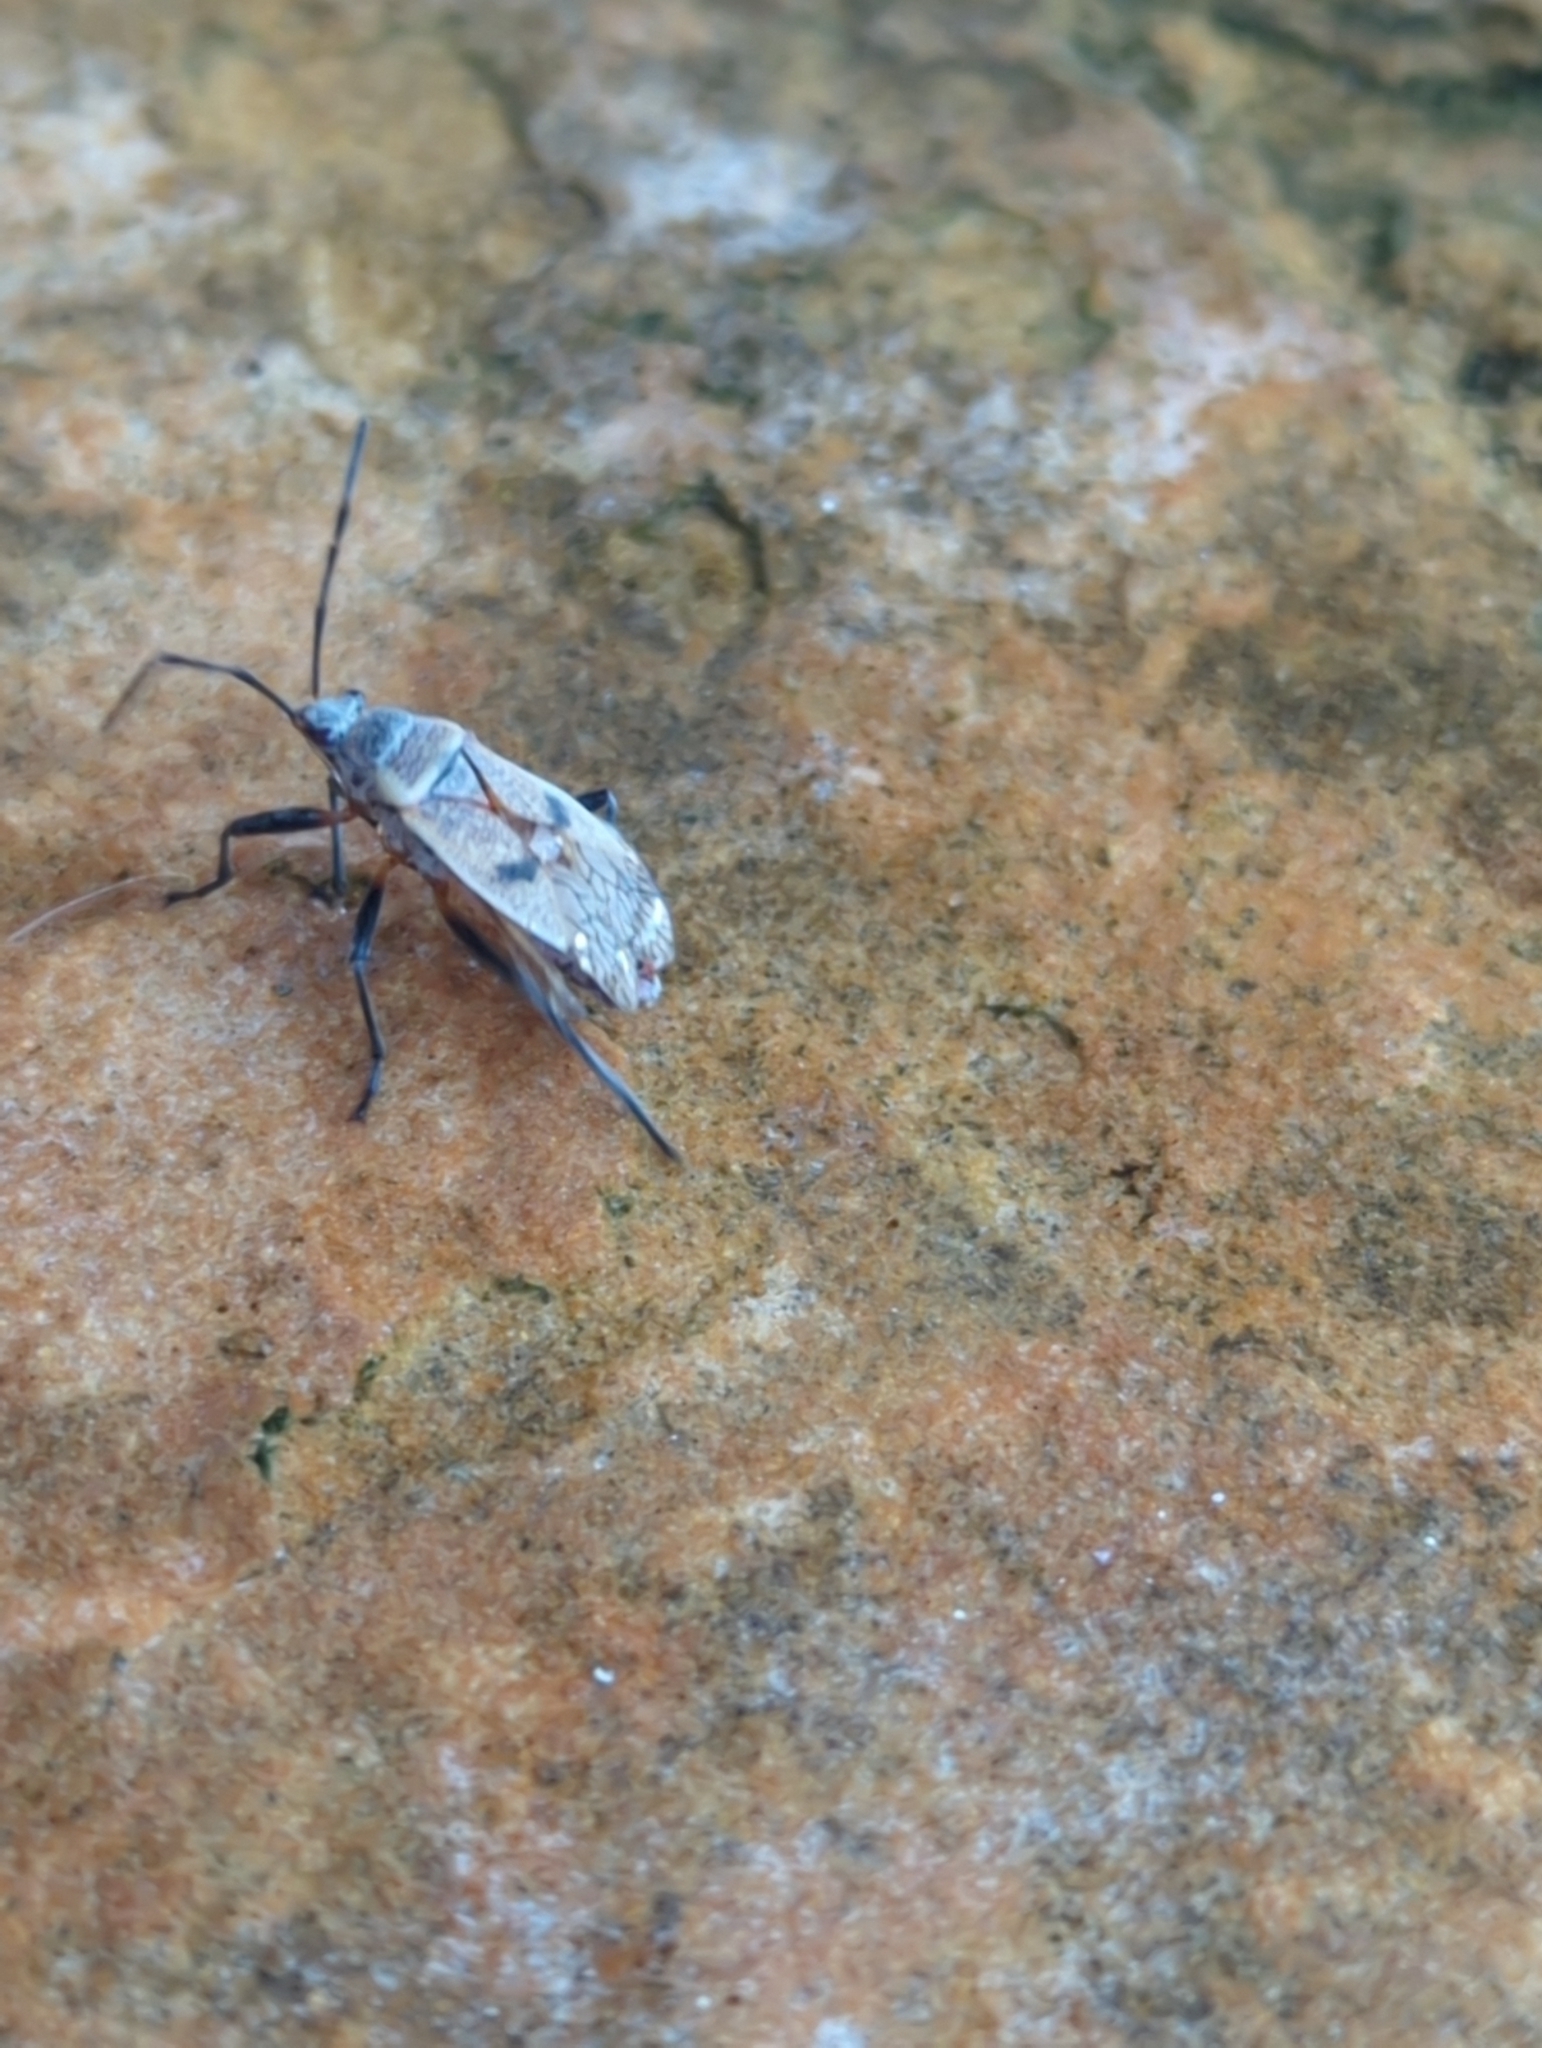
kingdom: Animalia
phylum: Arthropoda
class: Insecta
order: Hemiptera
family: Largidae
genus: Largus
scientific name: Largus maculatus
